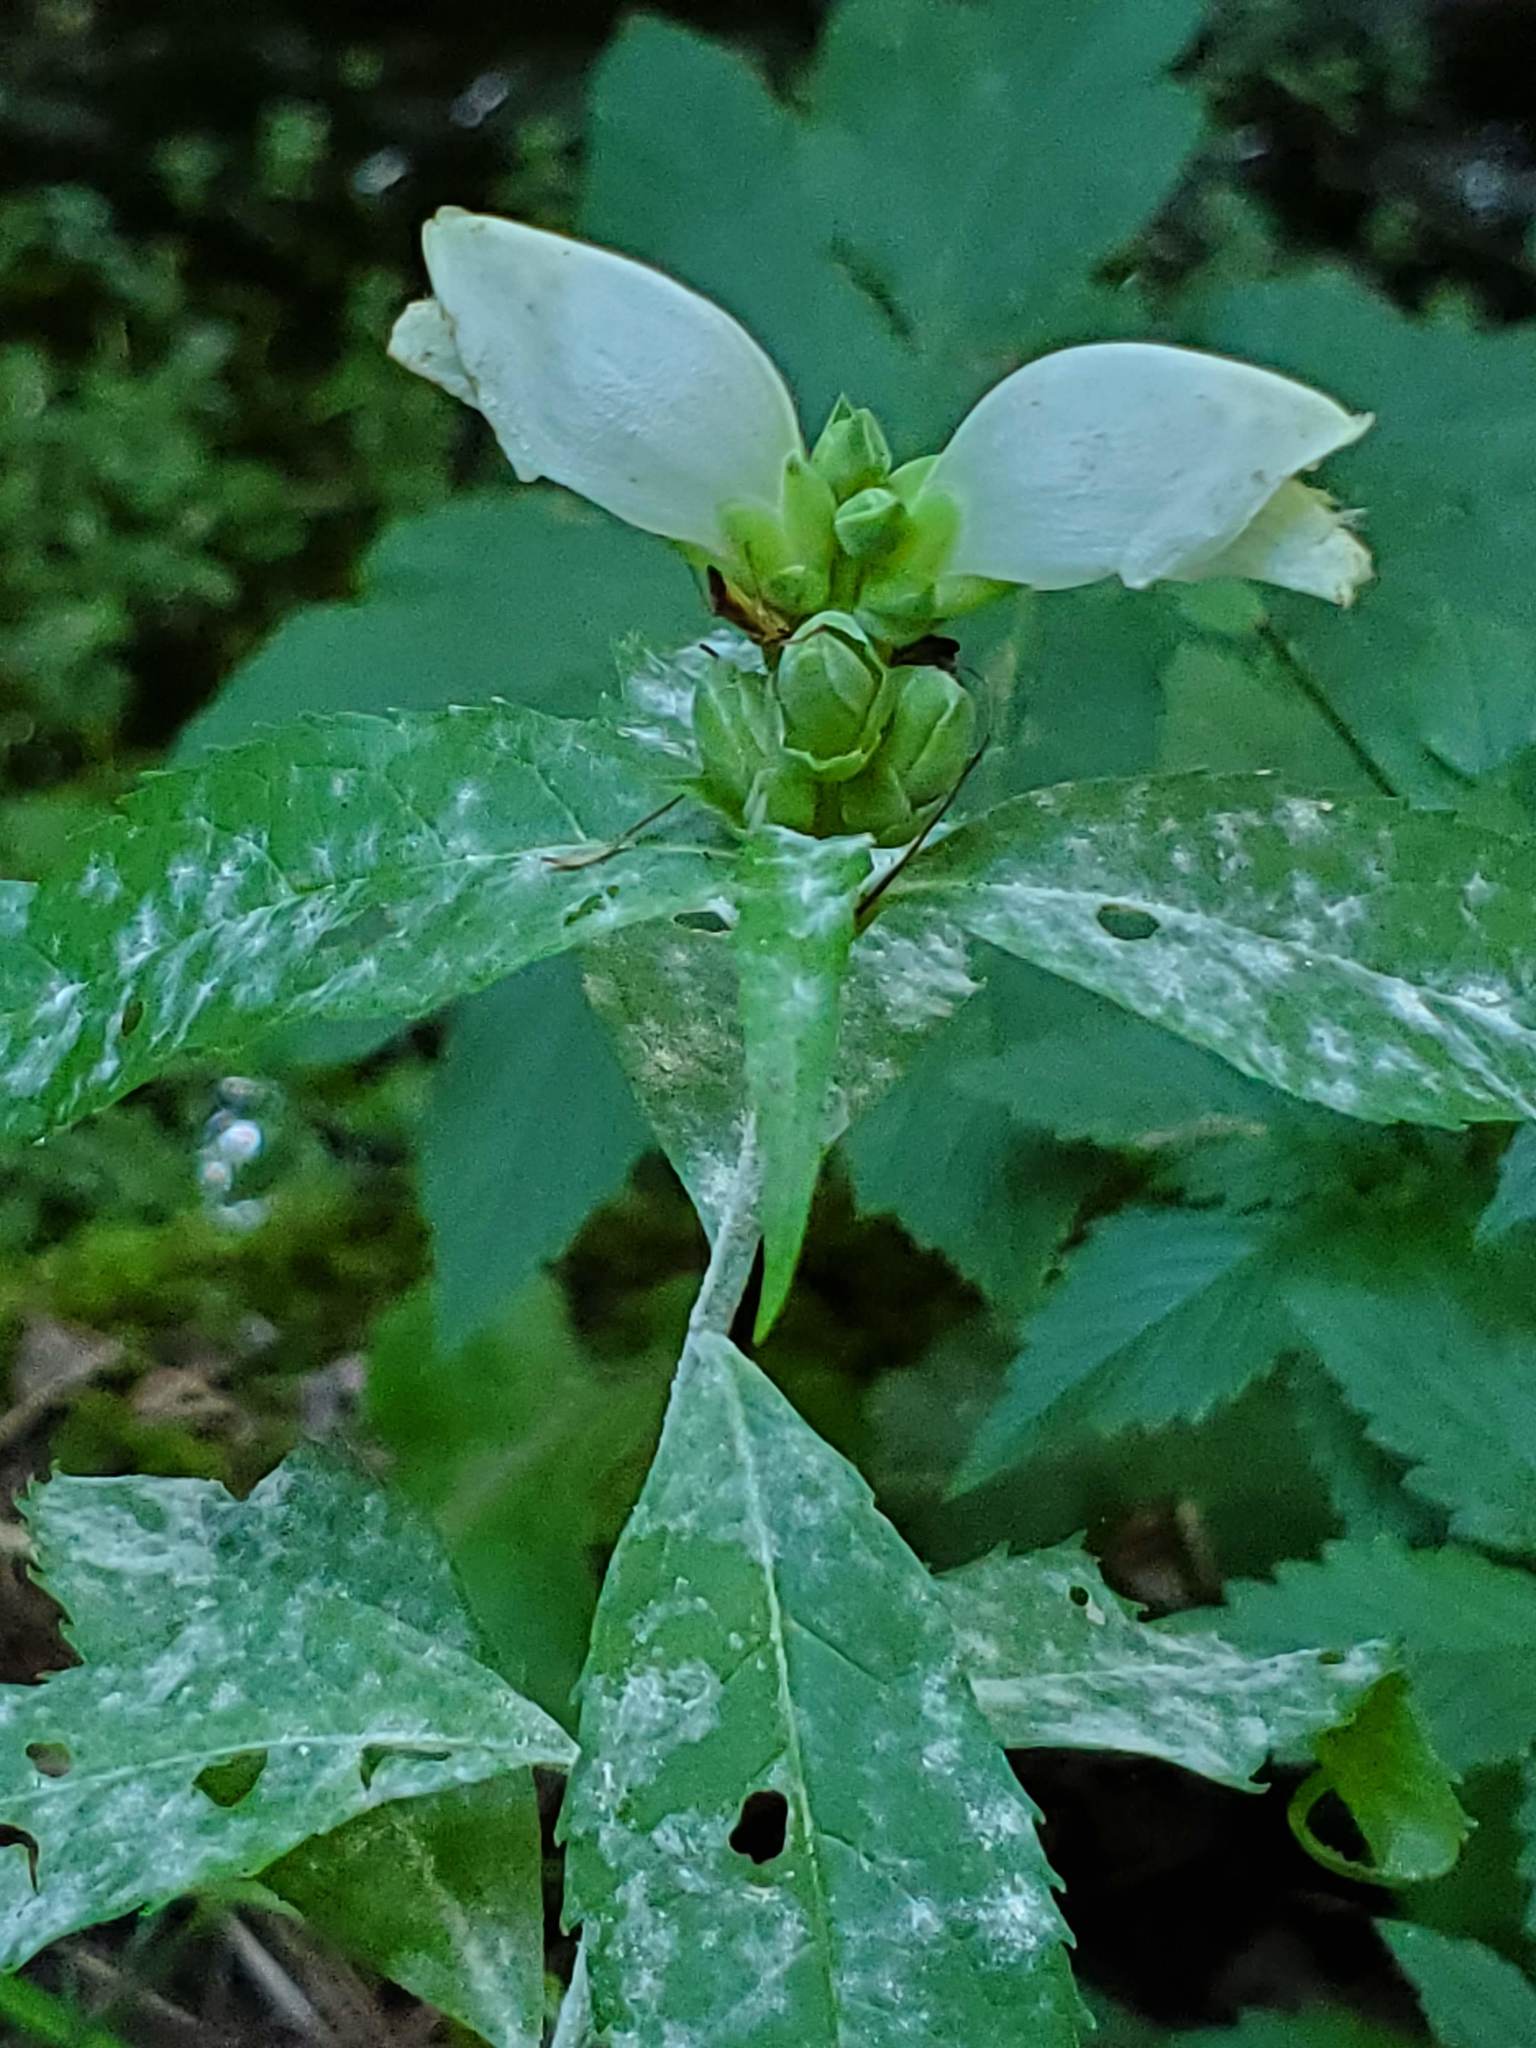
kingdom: Plantae
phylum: Tracheophyta
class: Magnoliopsida
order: Lamiales
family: Plantaginaceae
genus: Chelone
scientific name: Chelone glabra
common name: Snakehead
